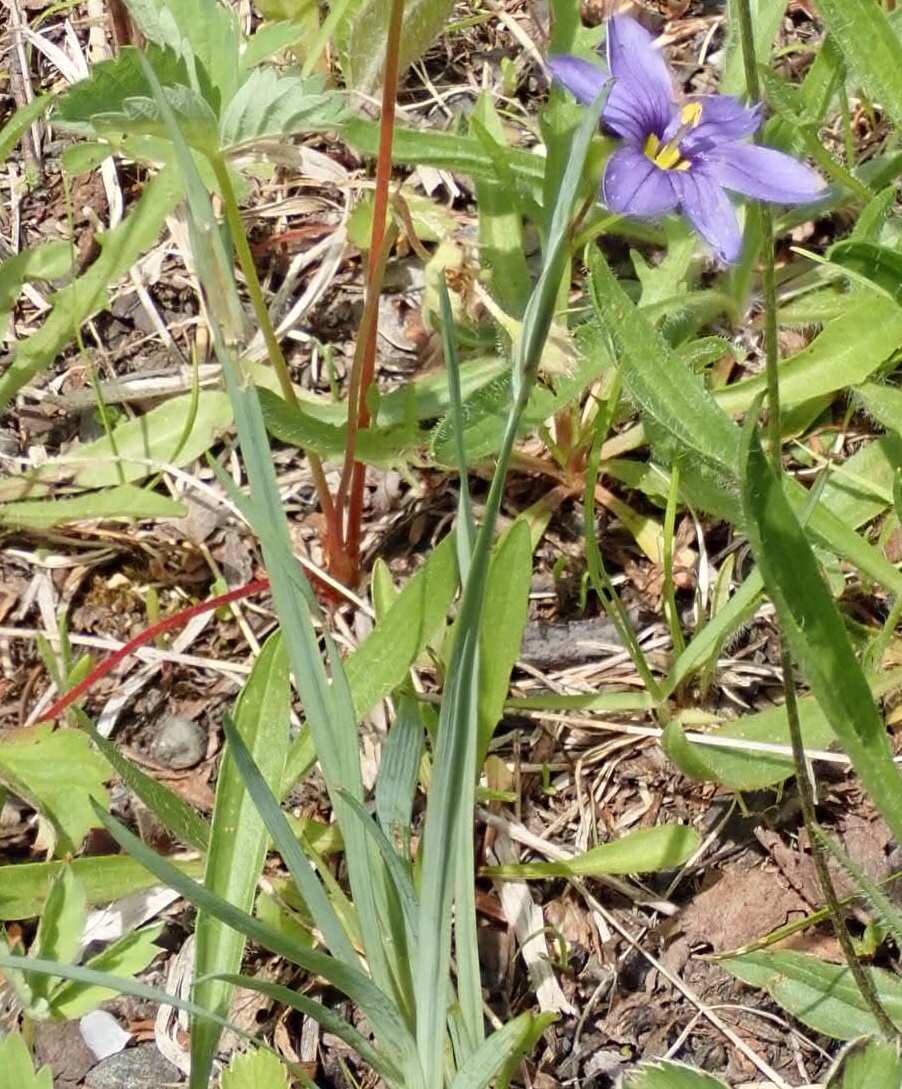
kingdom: Plantae
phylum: Tracheophyta
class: Liliopsida
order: Asparagales
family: Iridaceae
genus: Sisyrinchium
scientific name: Sisyrinchium montanum
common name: American blue-eyed-grass
